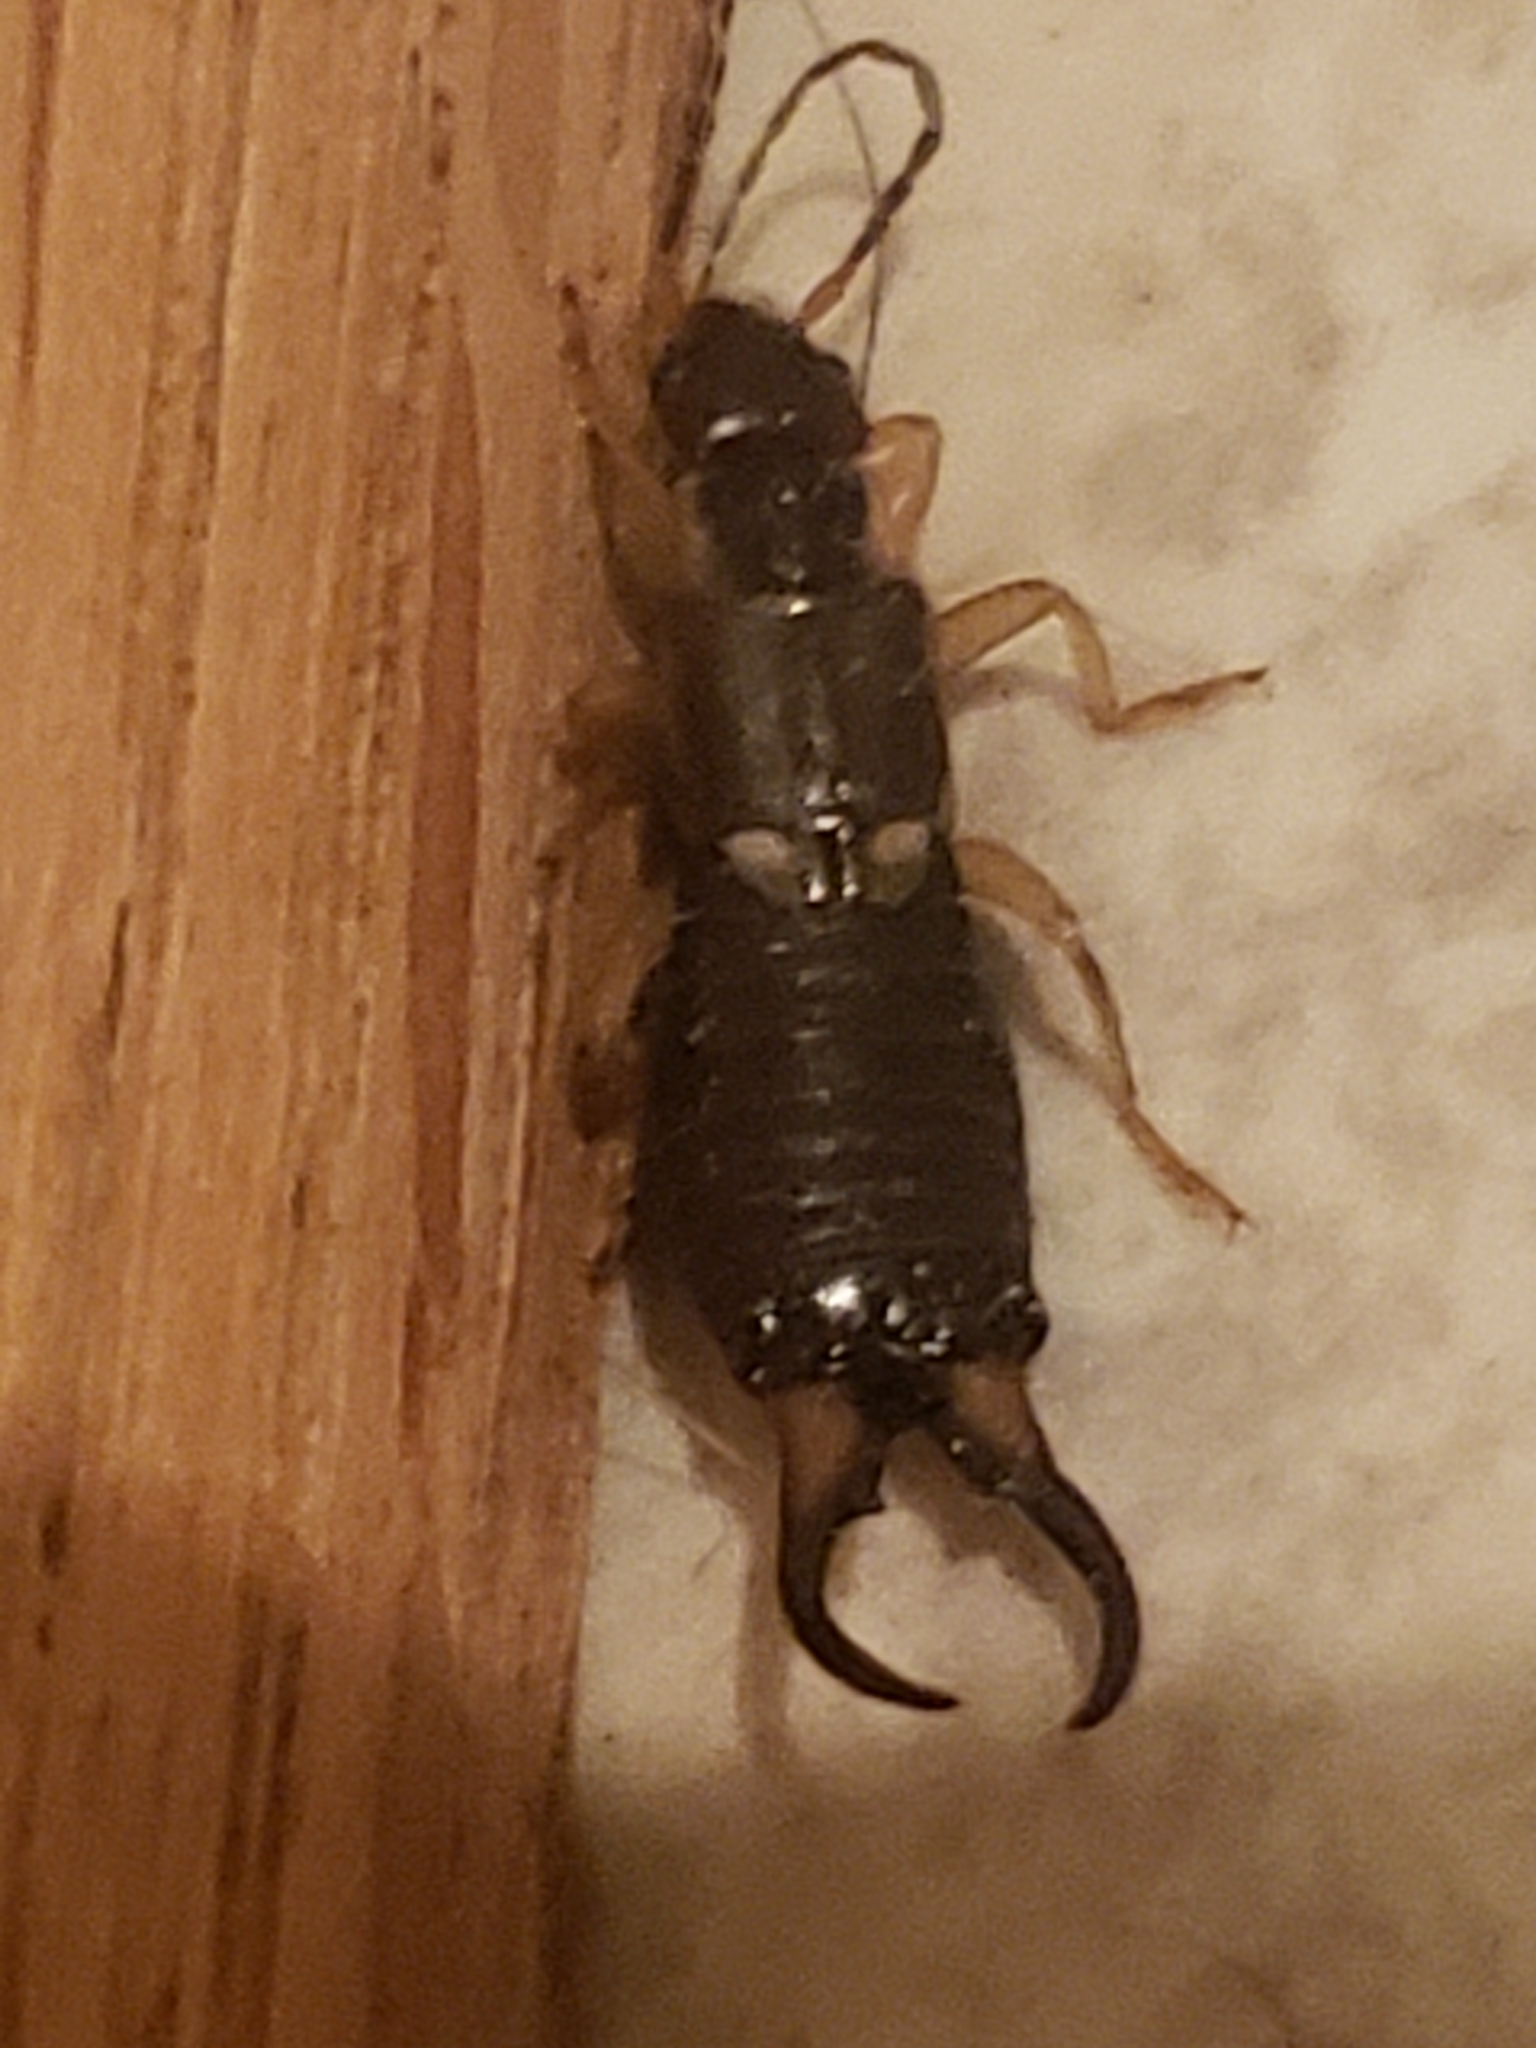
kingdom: Animalia
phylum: Arthropoda
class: Insecta
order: Dermaptera
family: Forficulidae
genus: Forficula
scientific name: Forficula
